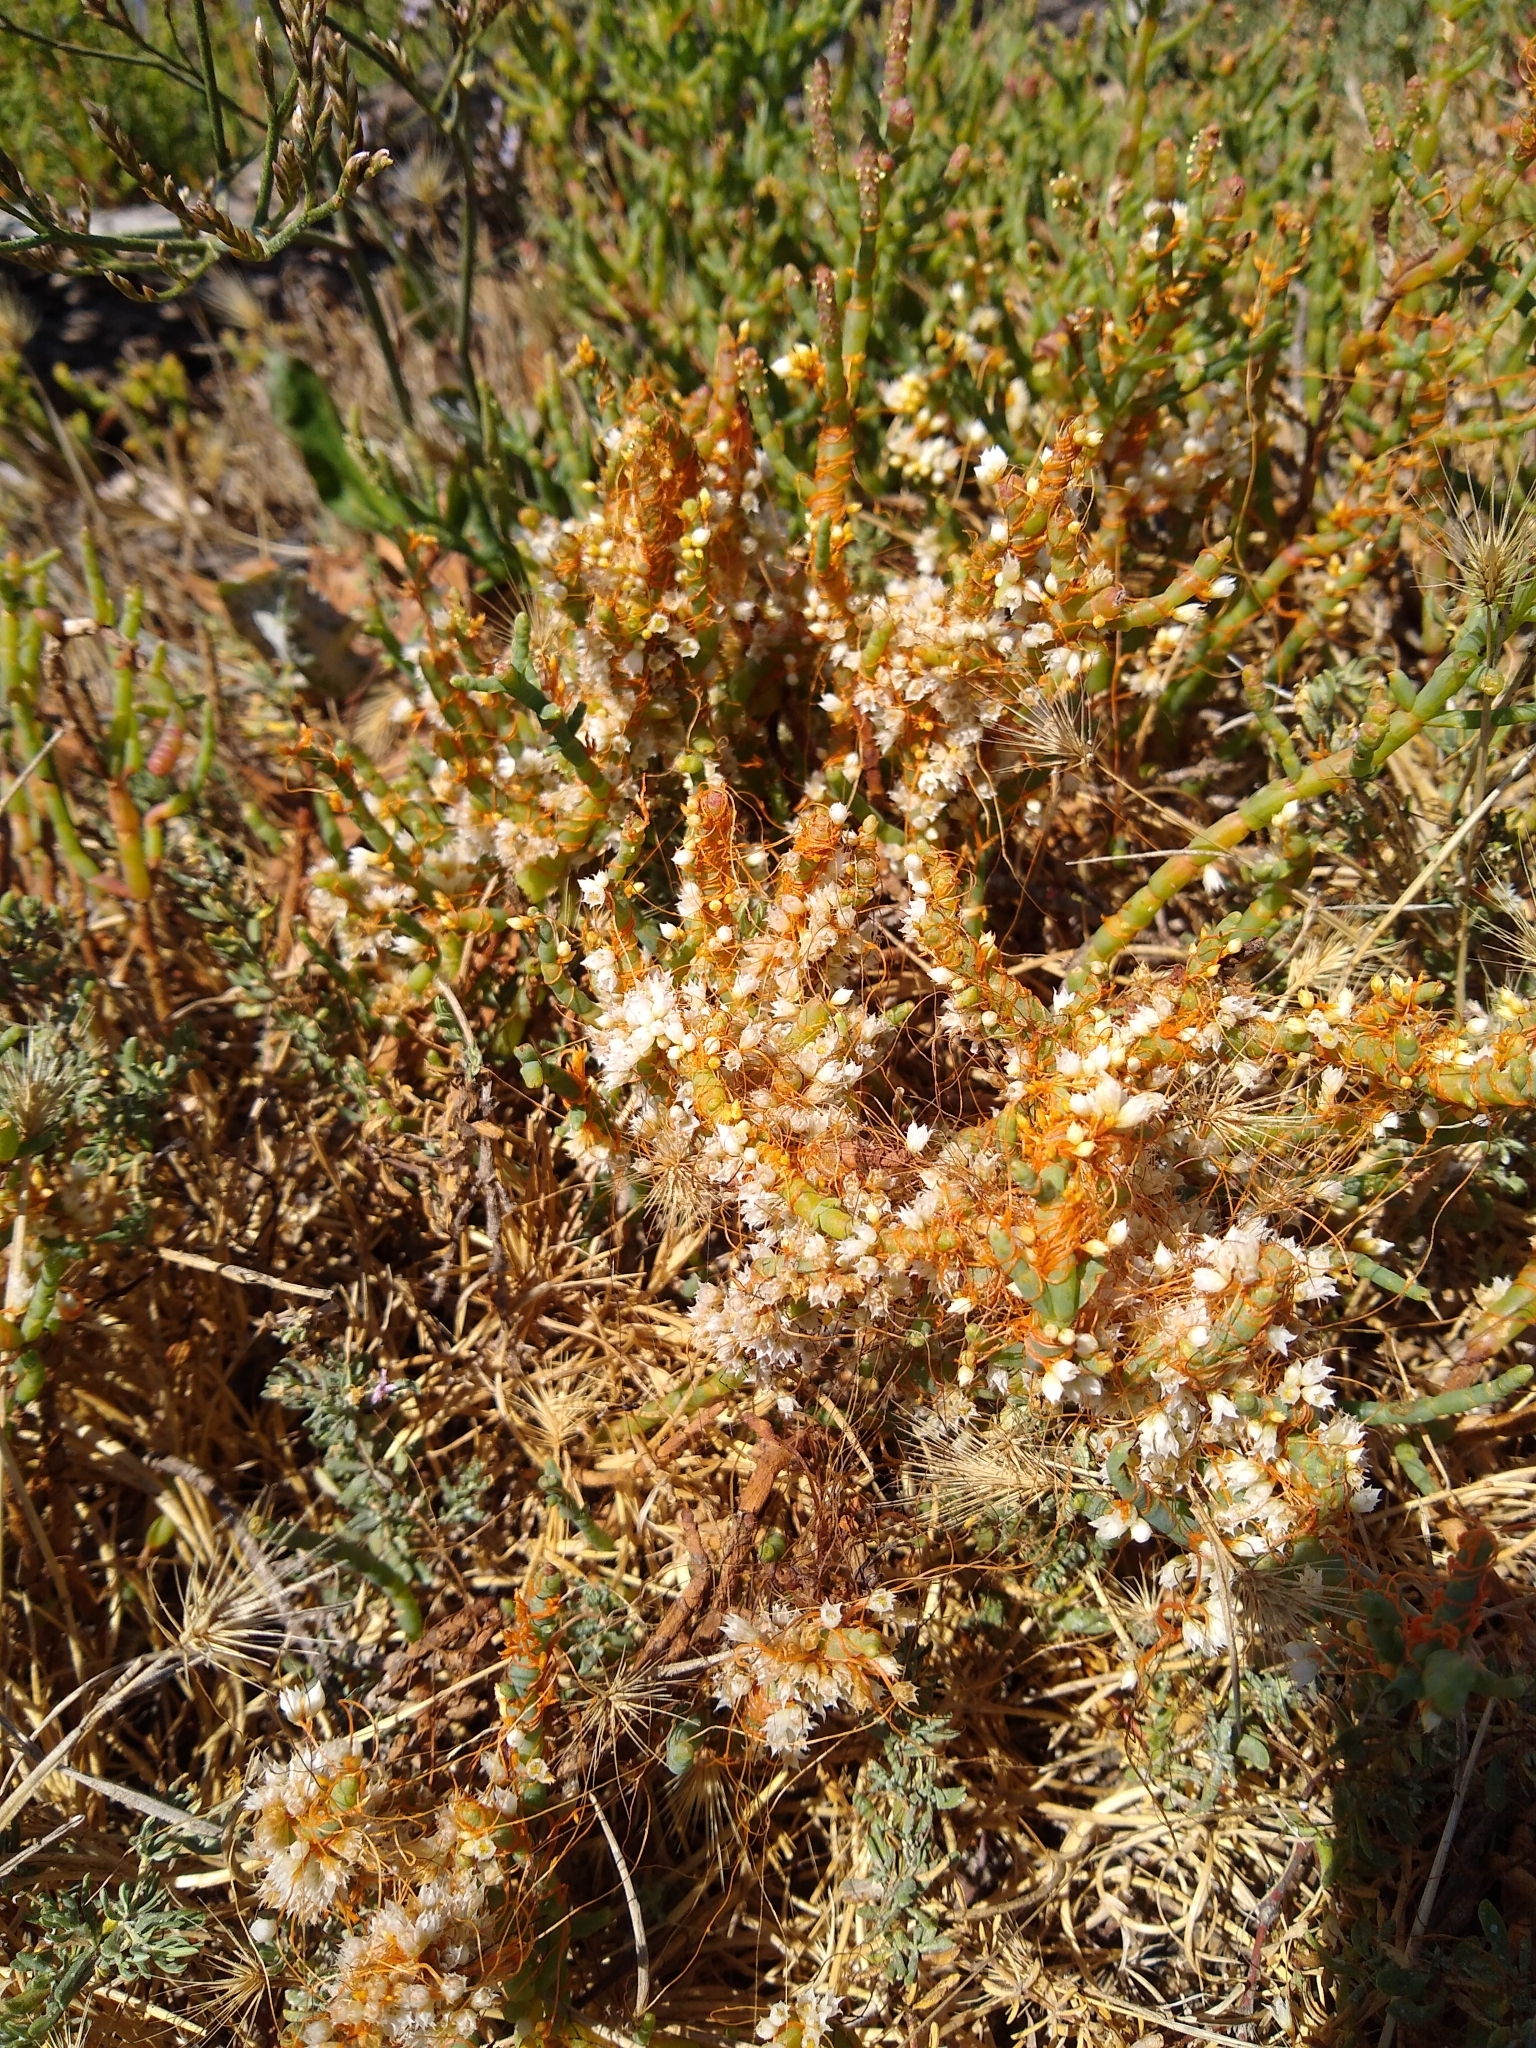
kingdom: Plantae
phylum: Tracheophyta
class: Magnoliopsida
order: Solanales
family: Convolvulaceae
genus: Cuscuta
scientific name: Cuscuta pacifica
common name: Large saltmarsh dodder
